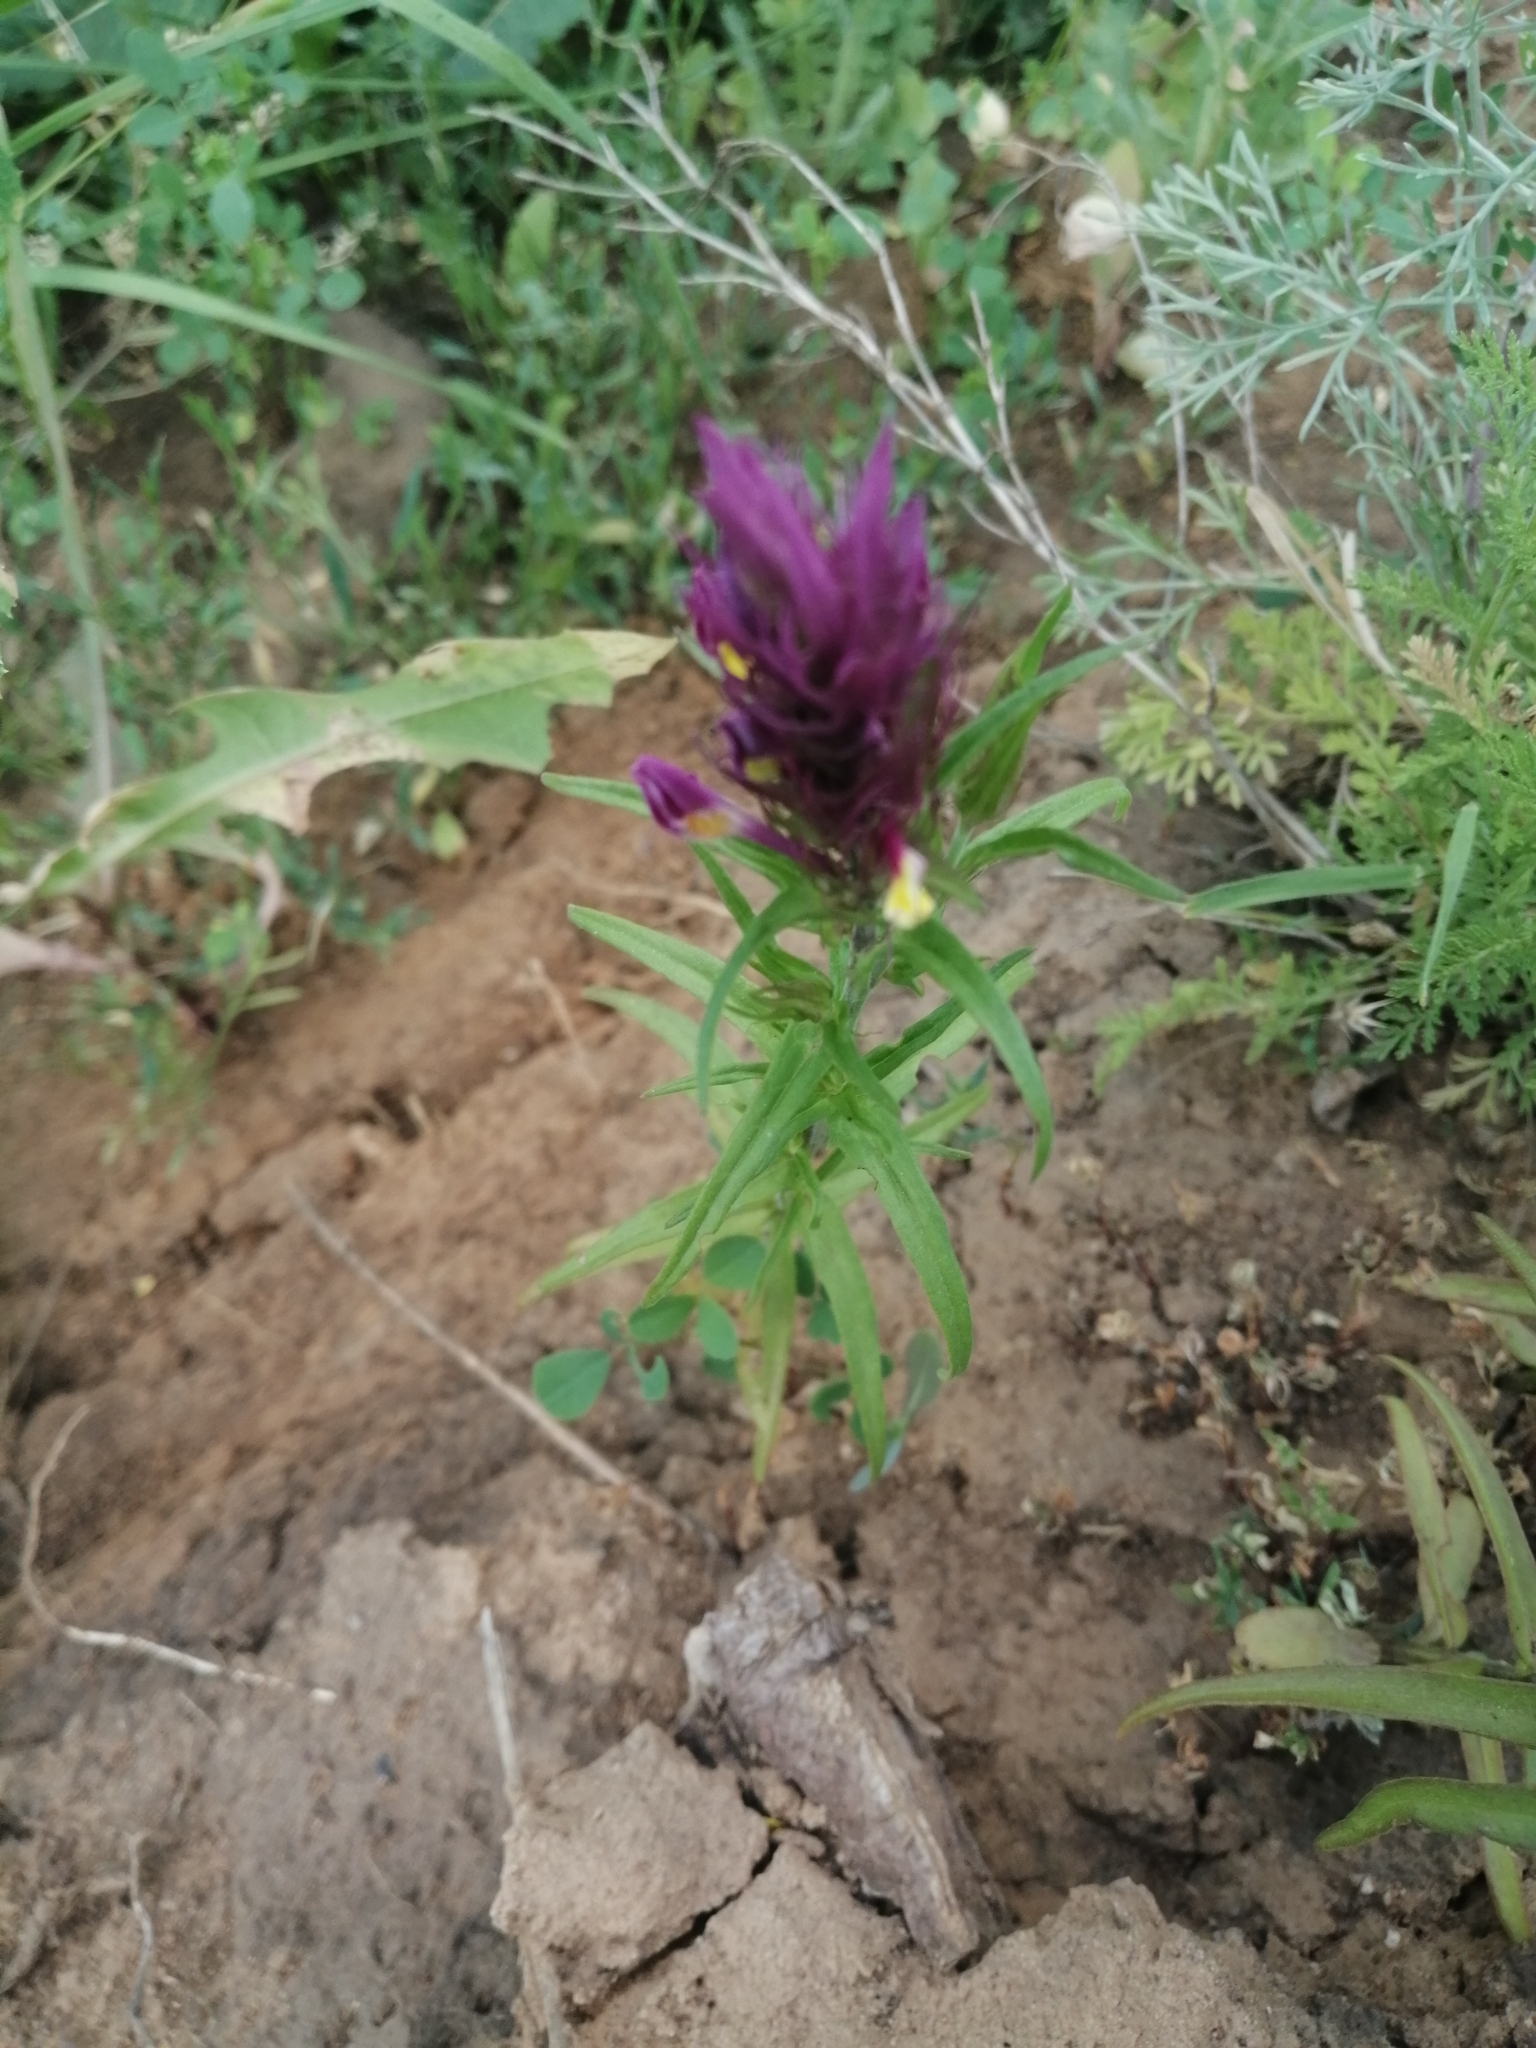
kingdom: Plantae
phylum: Tracheophyta
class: Magnoliopsida
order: Lamiales
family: Orobanchaceae
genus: Melampyrum
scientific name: Melampyrum arvense
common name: Field cow-wheat
